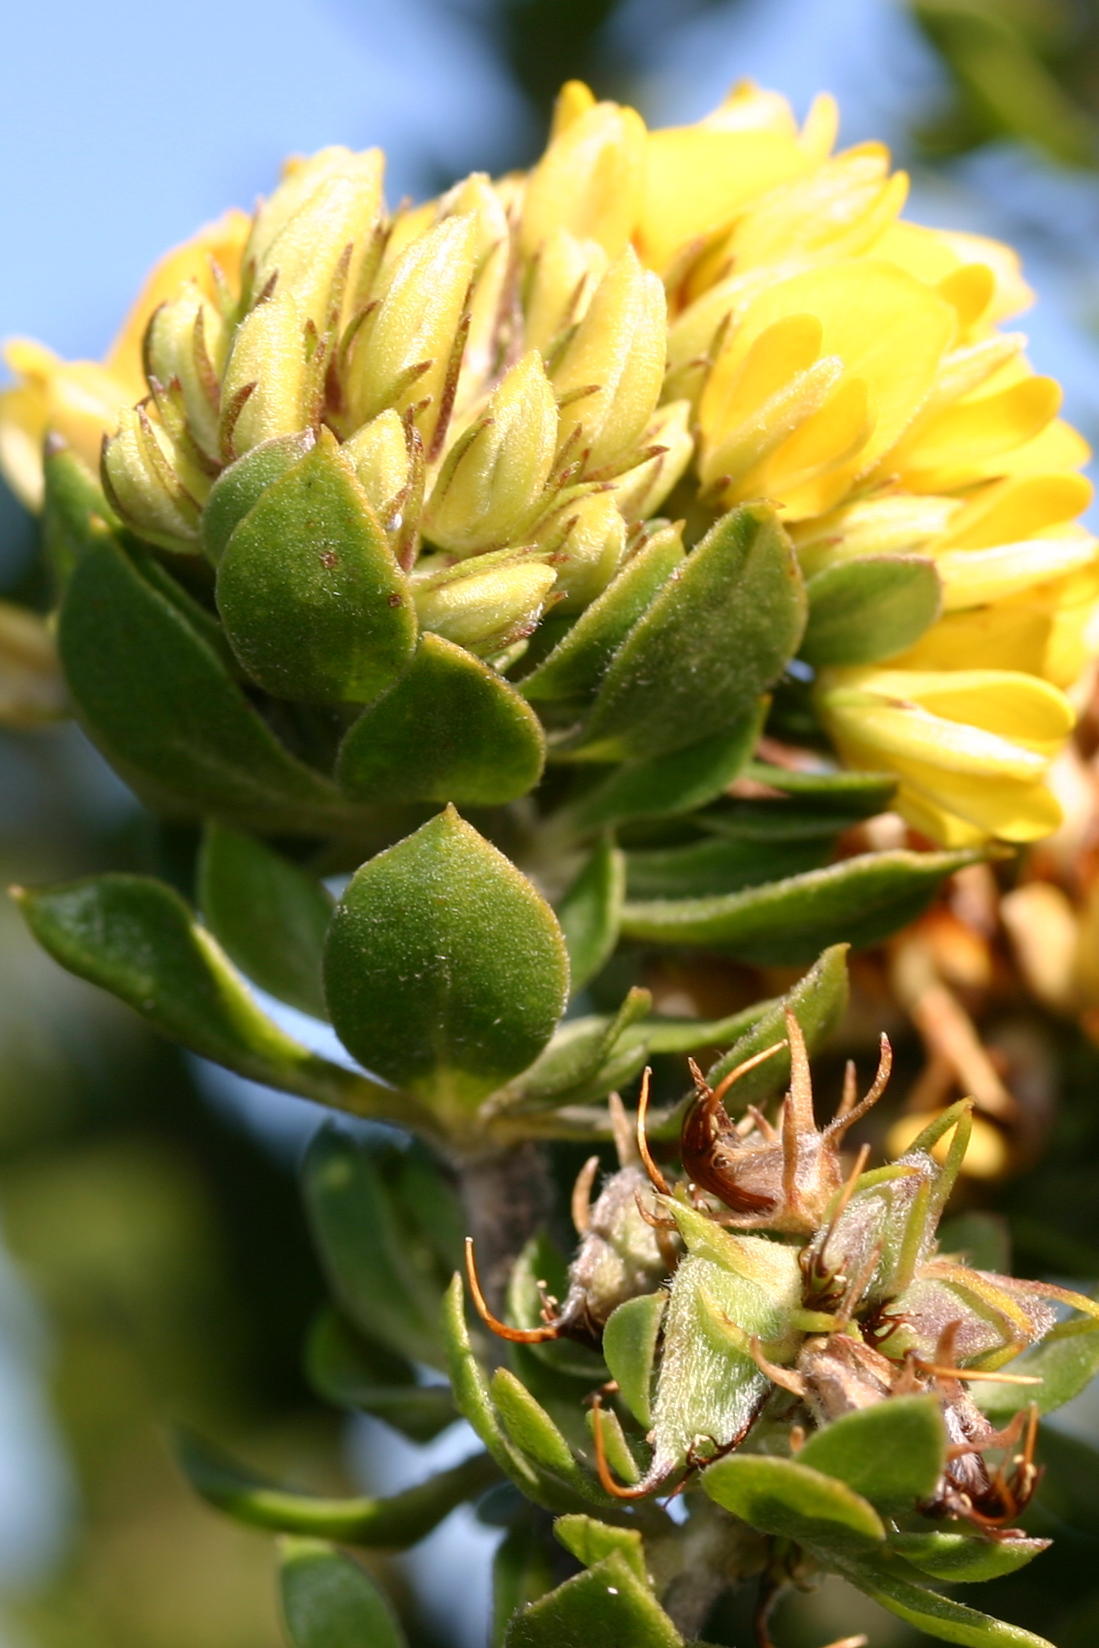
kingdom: Plantae
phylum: Tracheophyta
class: Magnoliopsida
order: Fabales
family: Fabaceae
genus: Aspalathus
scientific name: Aspalathus securifolia
